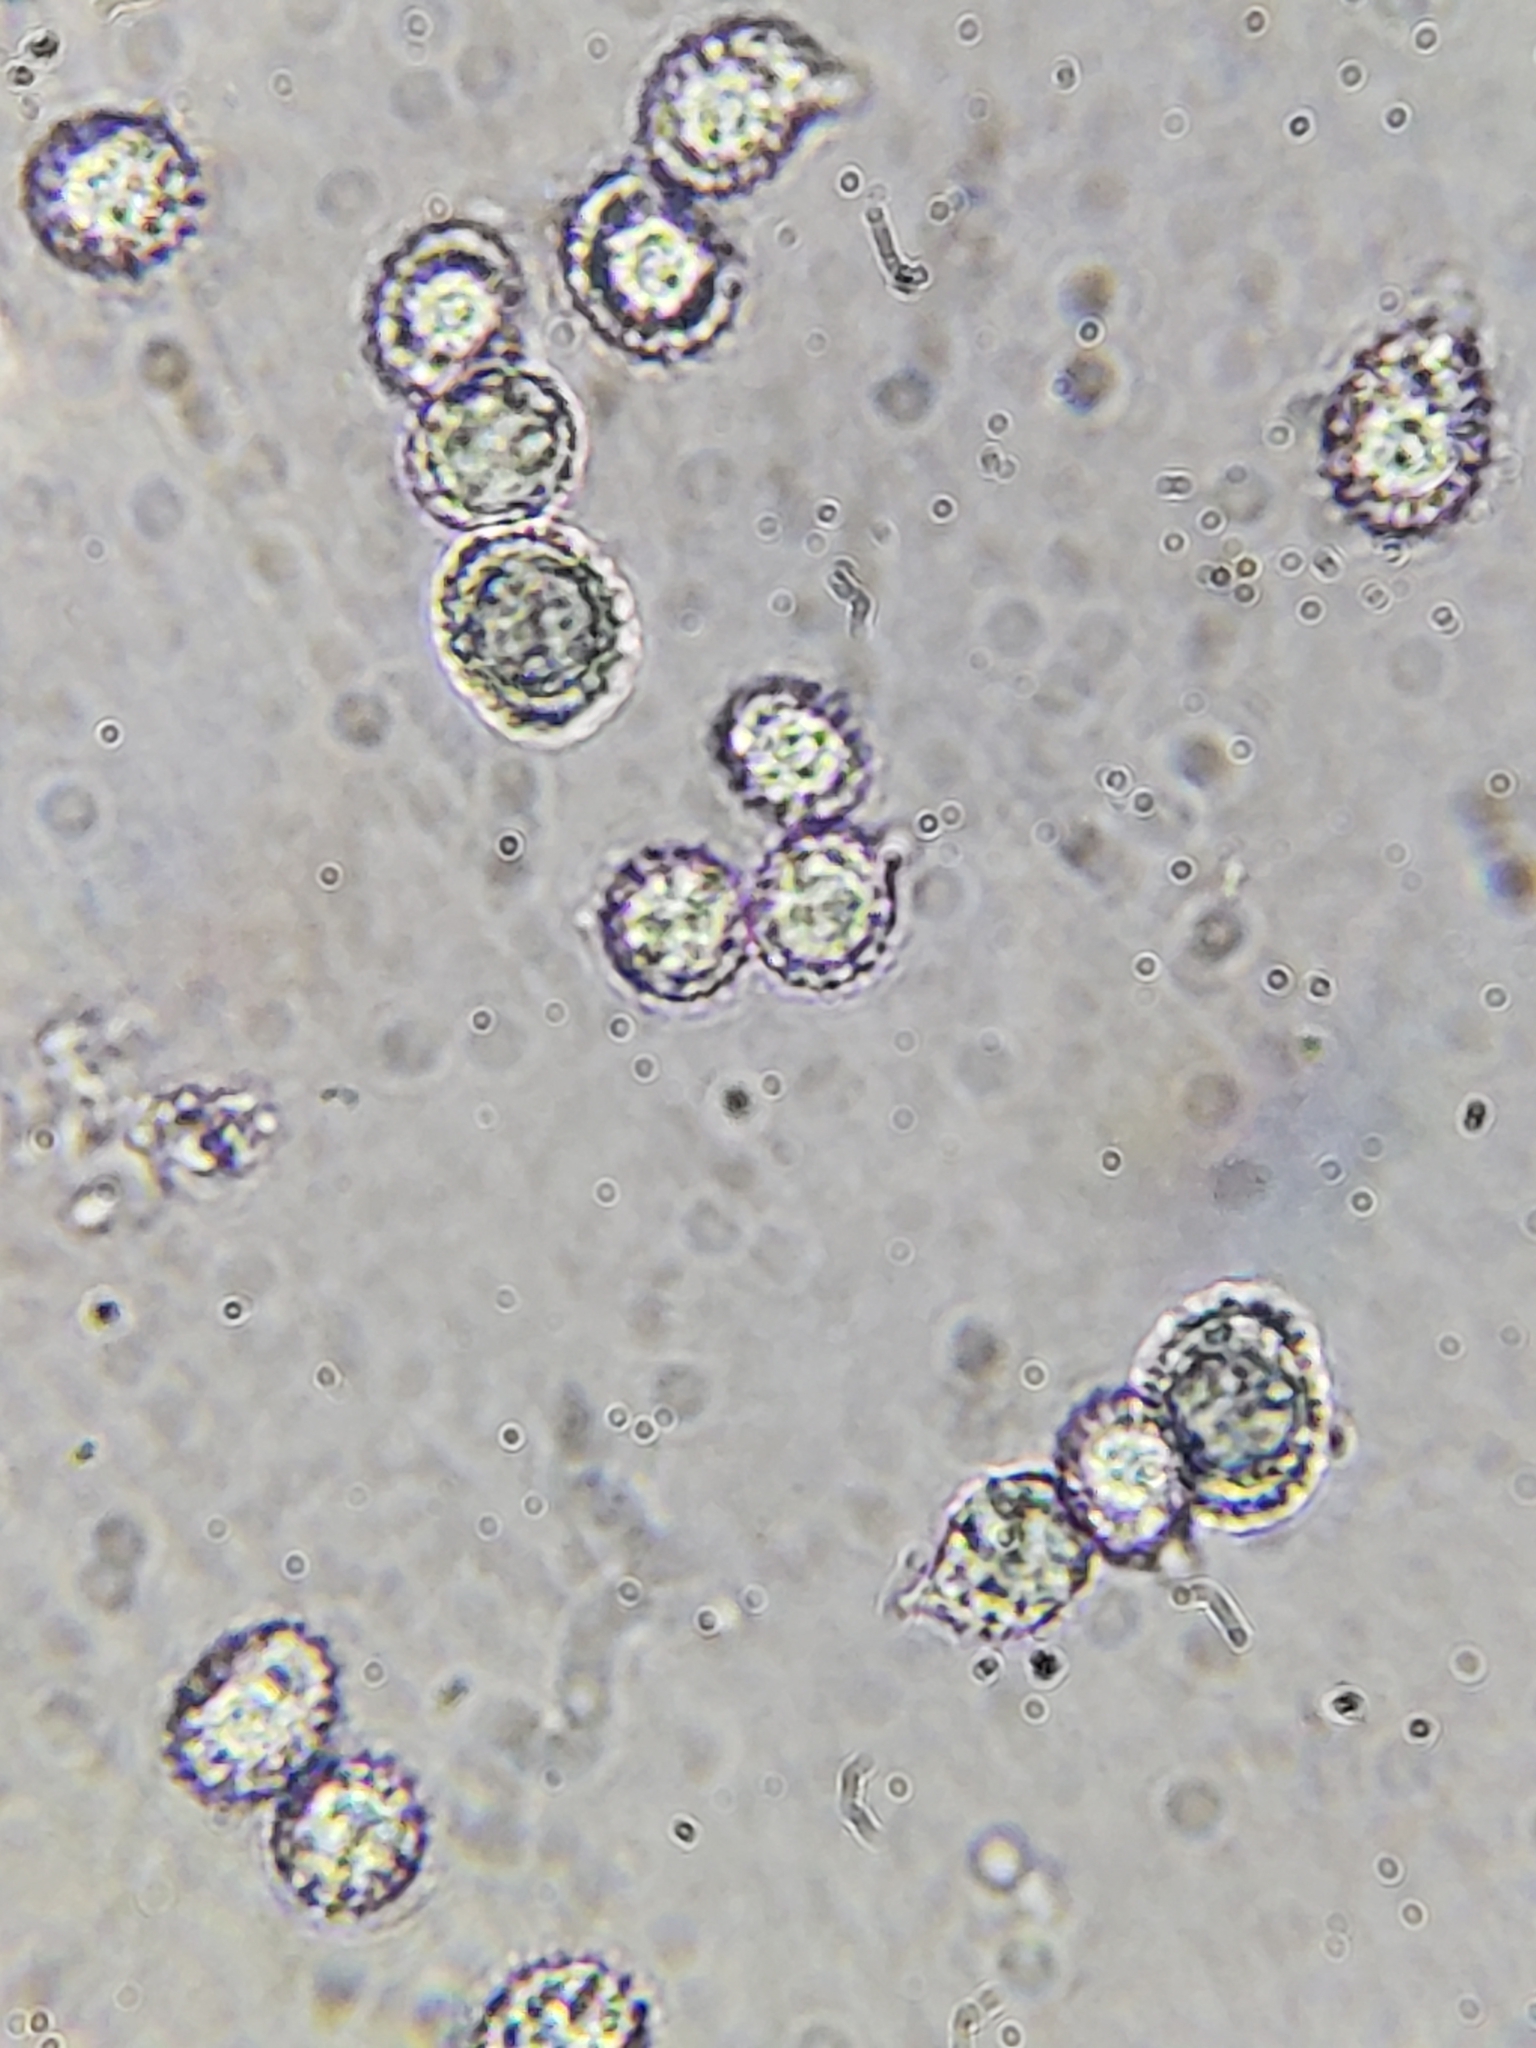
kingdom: Fungi
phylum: Basidiomycota
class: Agaricomycetes
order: Russulales
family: Russulaceae
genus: Russula
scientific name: Russula perlactea
